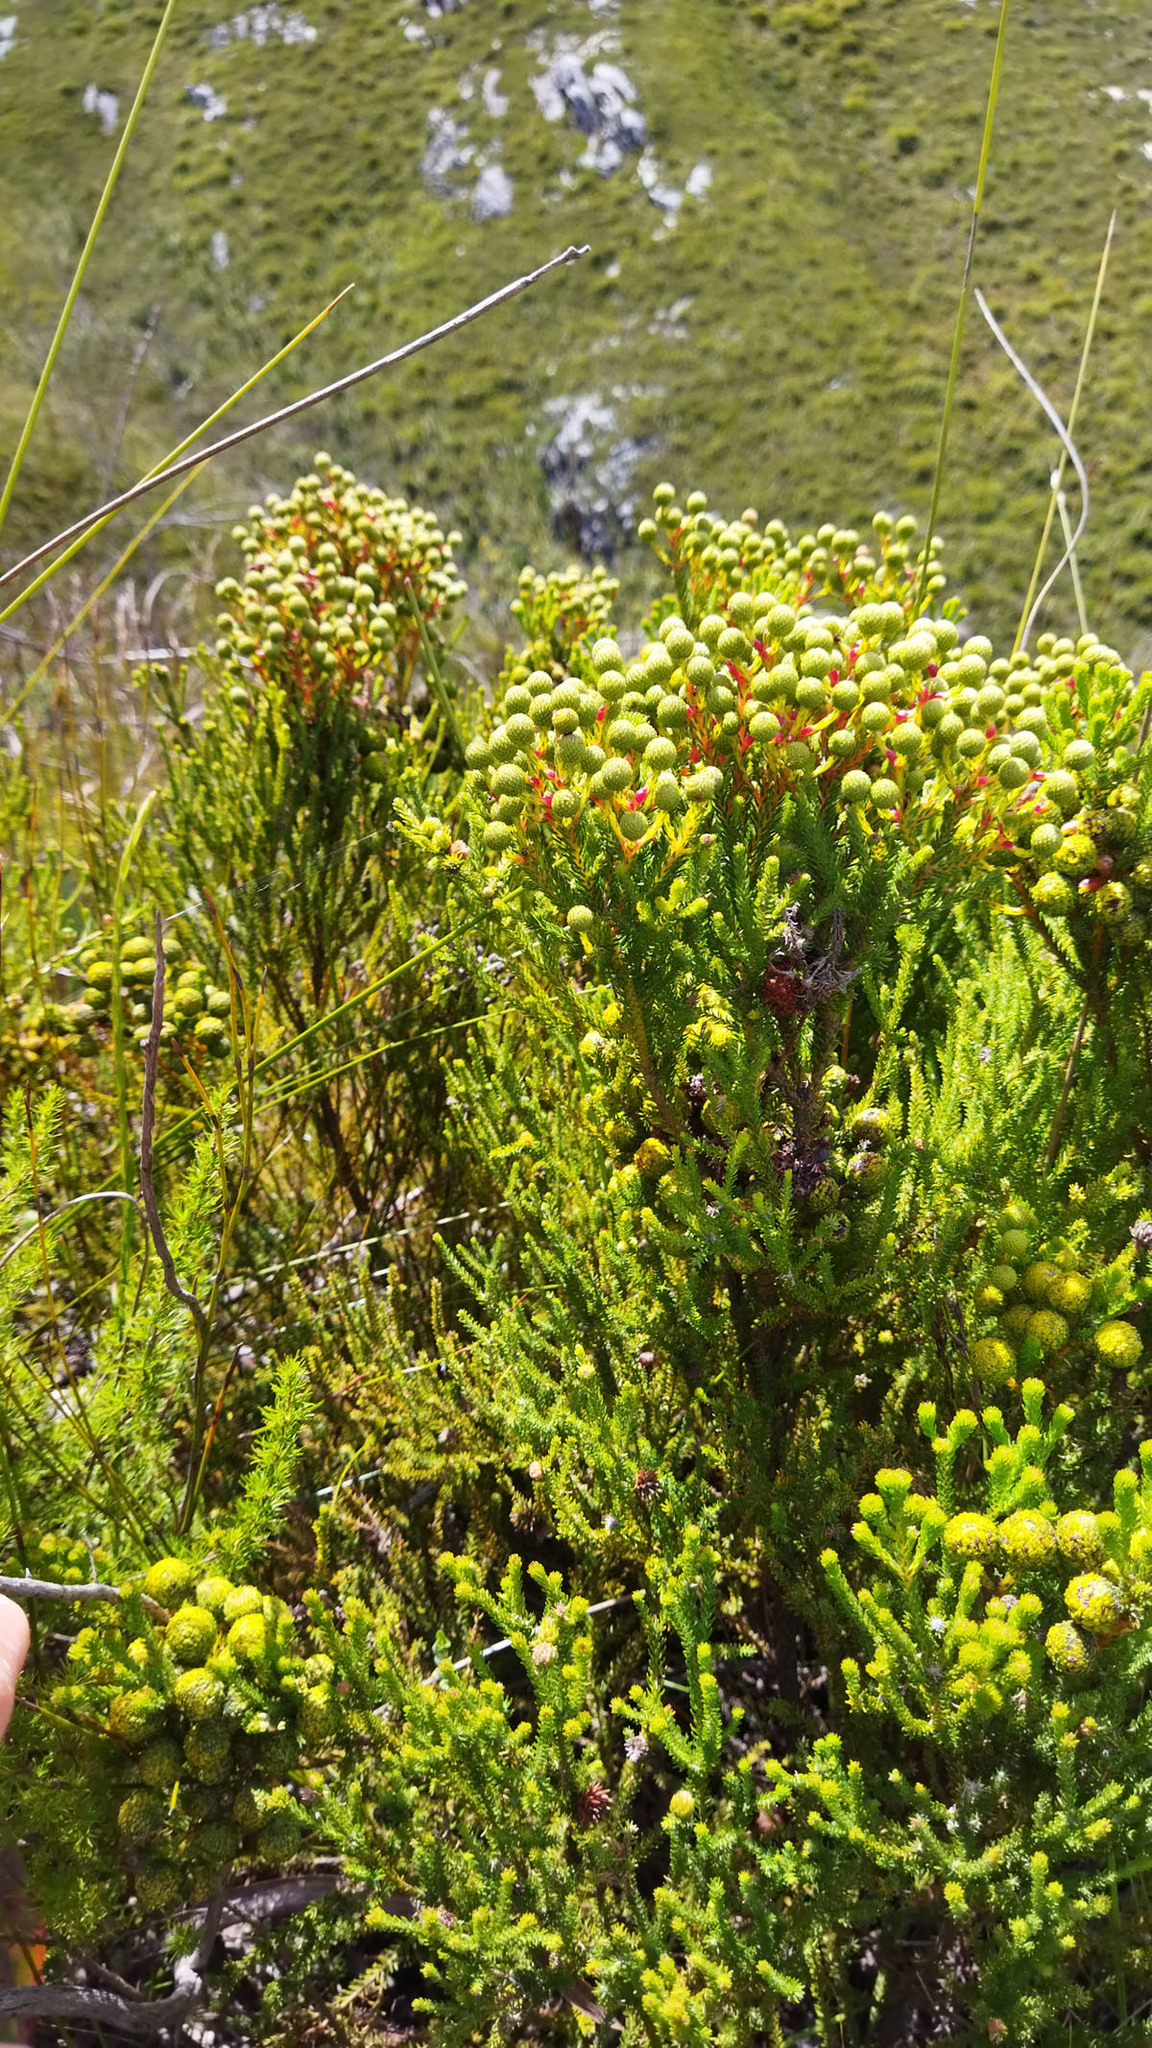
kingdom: Plantae
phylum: Tracheophyta
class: Magnoliopsida
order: Bruniales
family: Bruniaceae
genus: Berzelia
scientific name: Berzelia intermedia
